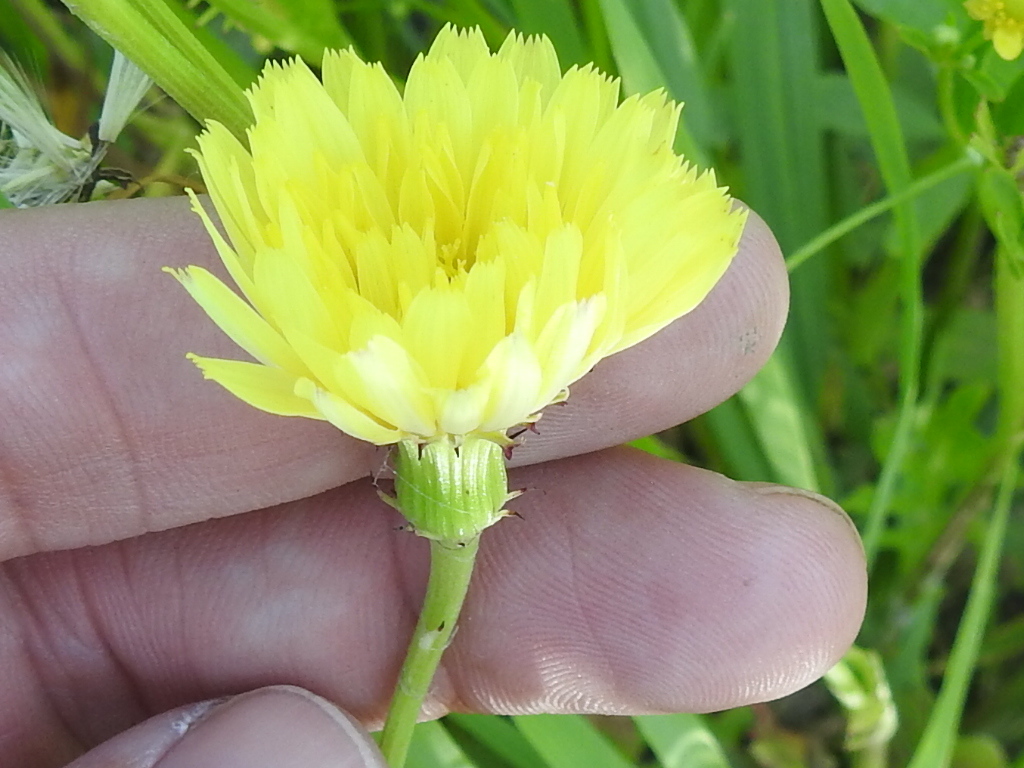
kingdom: Plantae
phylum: Tracheophyta
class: Magnoliopsida
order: Asterales
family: Asteraceae
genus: Pyrrhopappus
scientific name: Pyrrhopappus carolinianus
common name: Carolina desert-chicory
